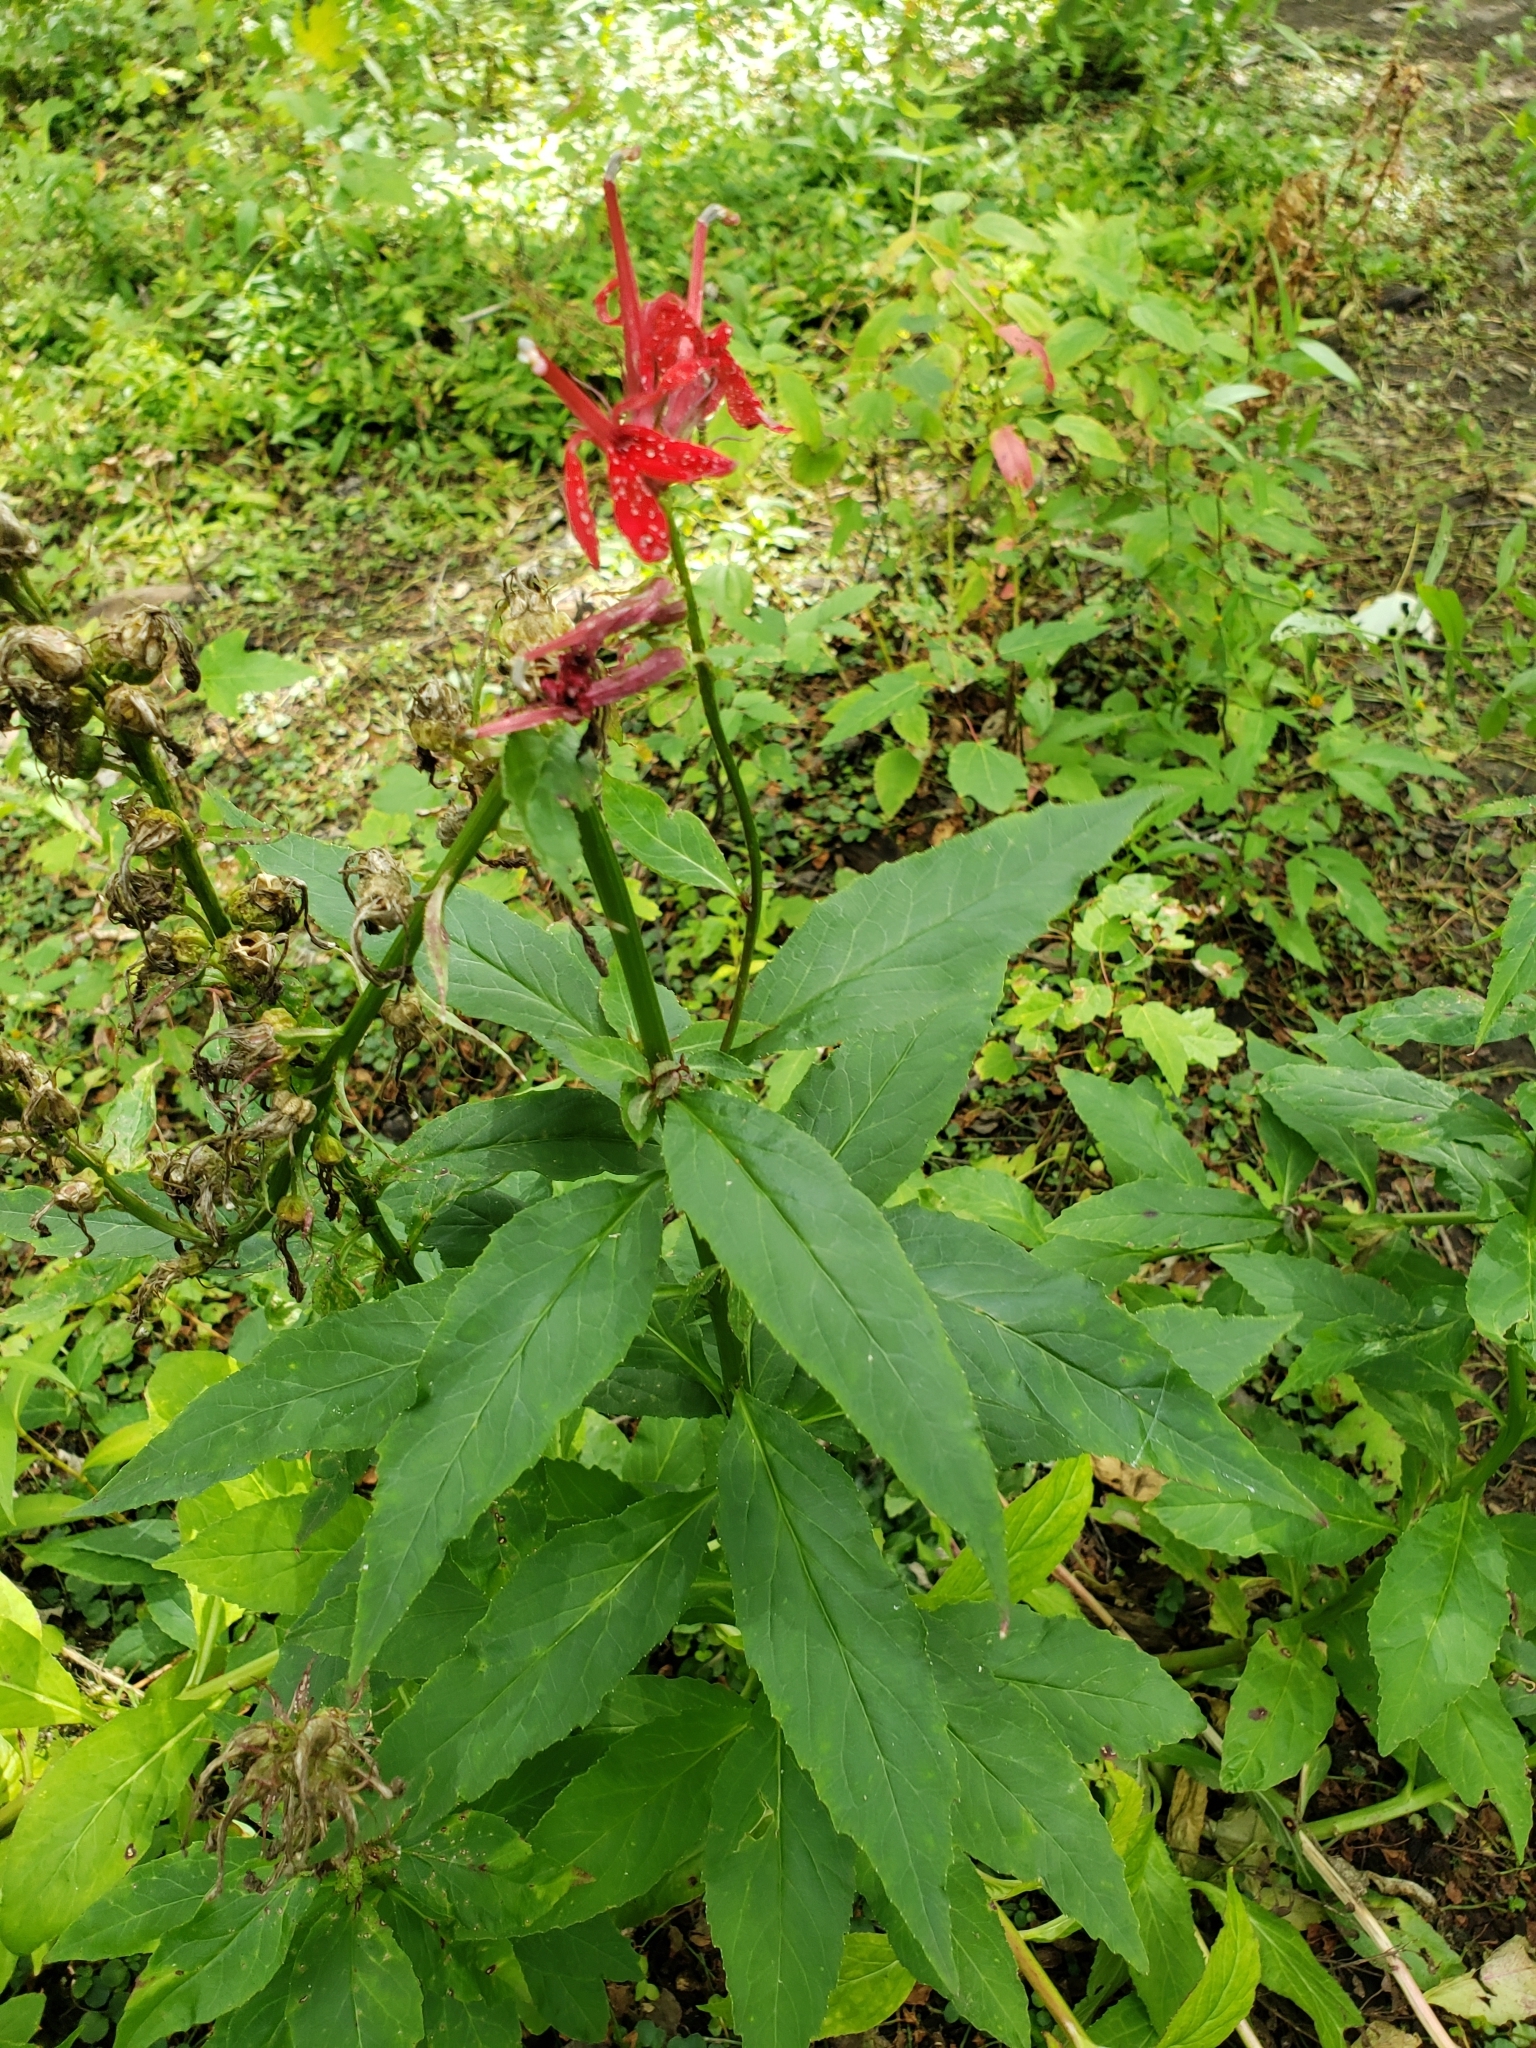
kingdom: Plantae
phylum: Tracheophyta
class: Magnoliopsida
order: Asterales
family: Campanulaceae
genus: Lobelia
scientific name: Lobelia cardinalis
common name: Cardinal flower
